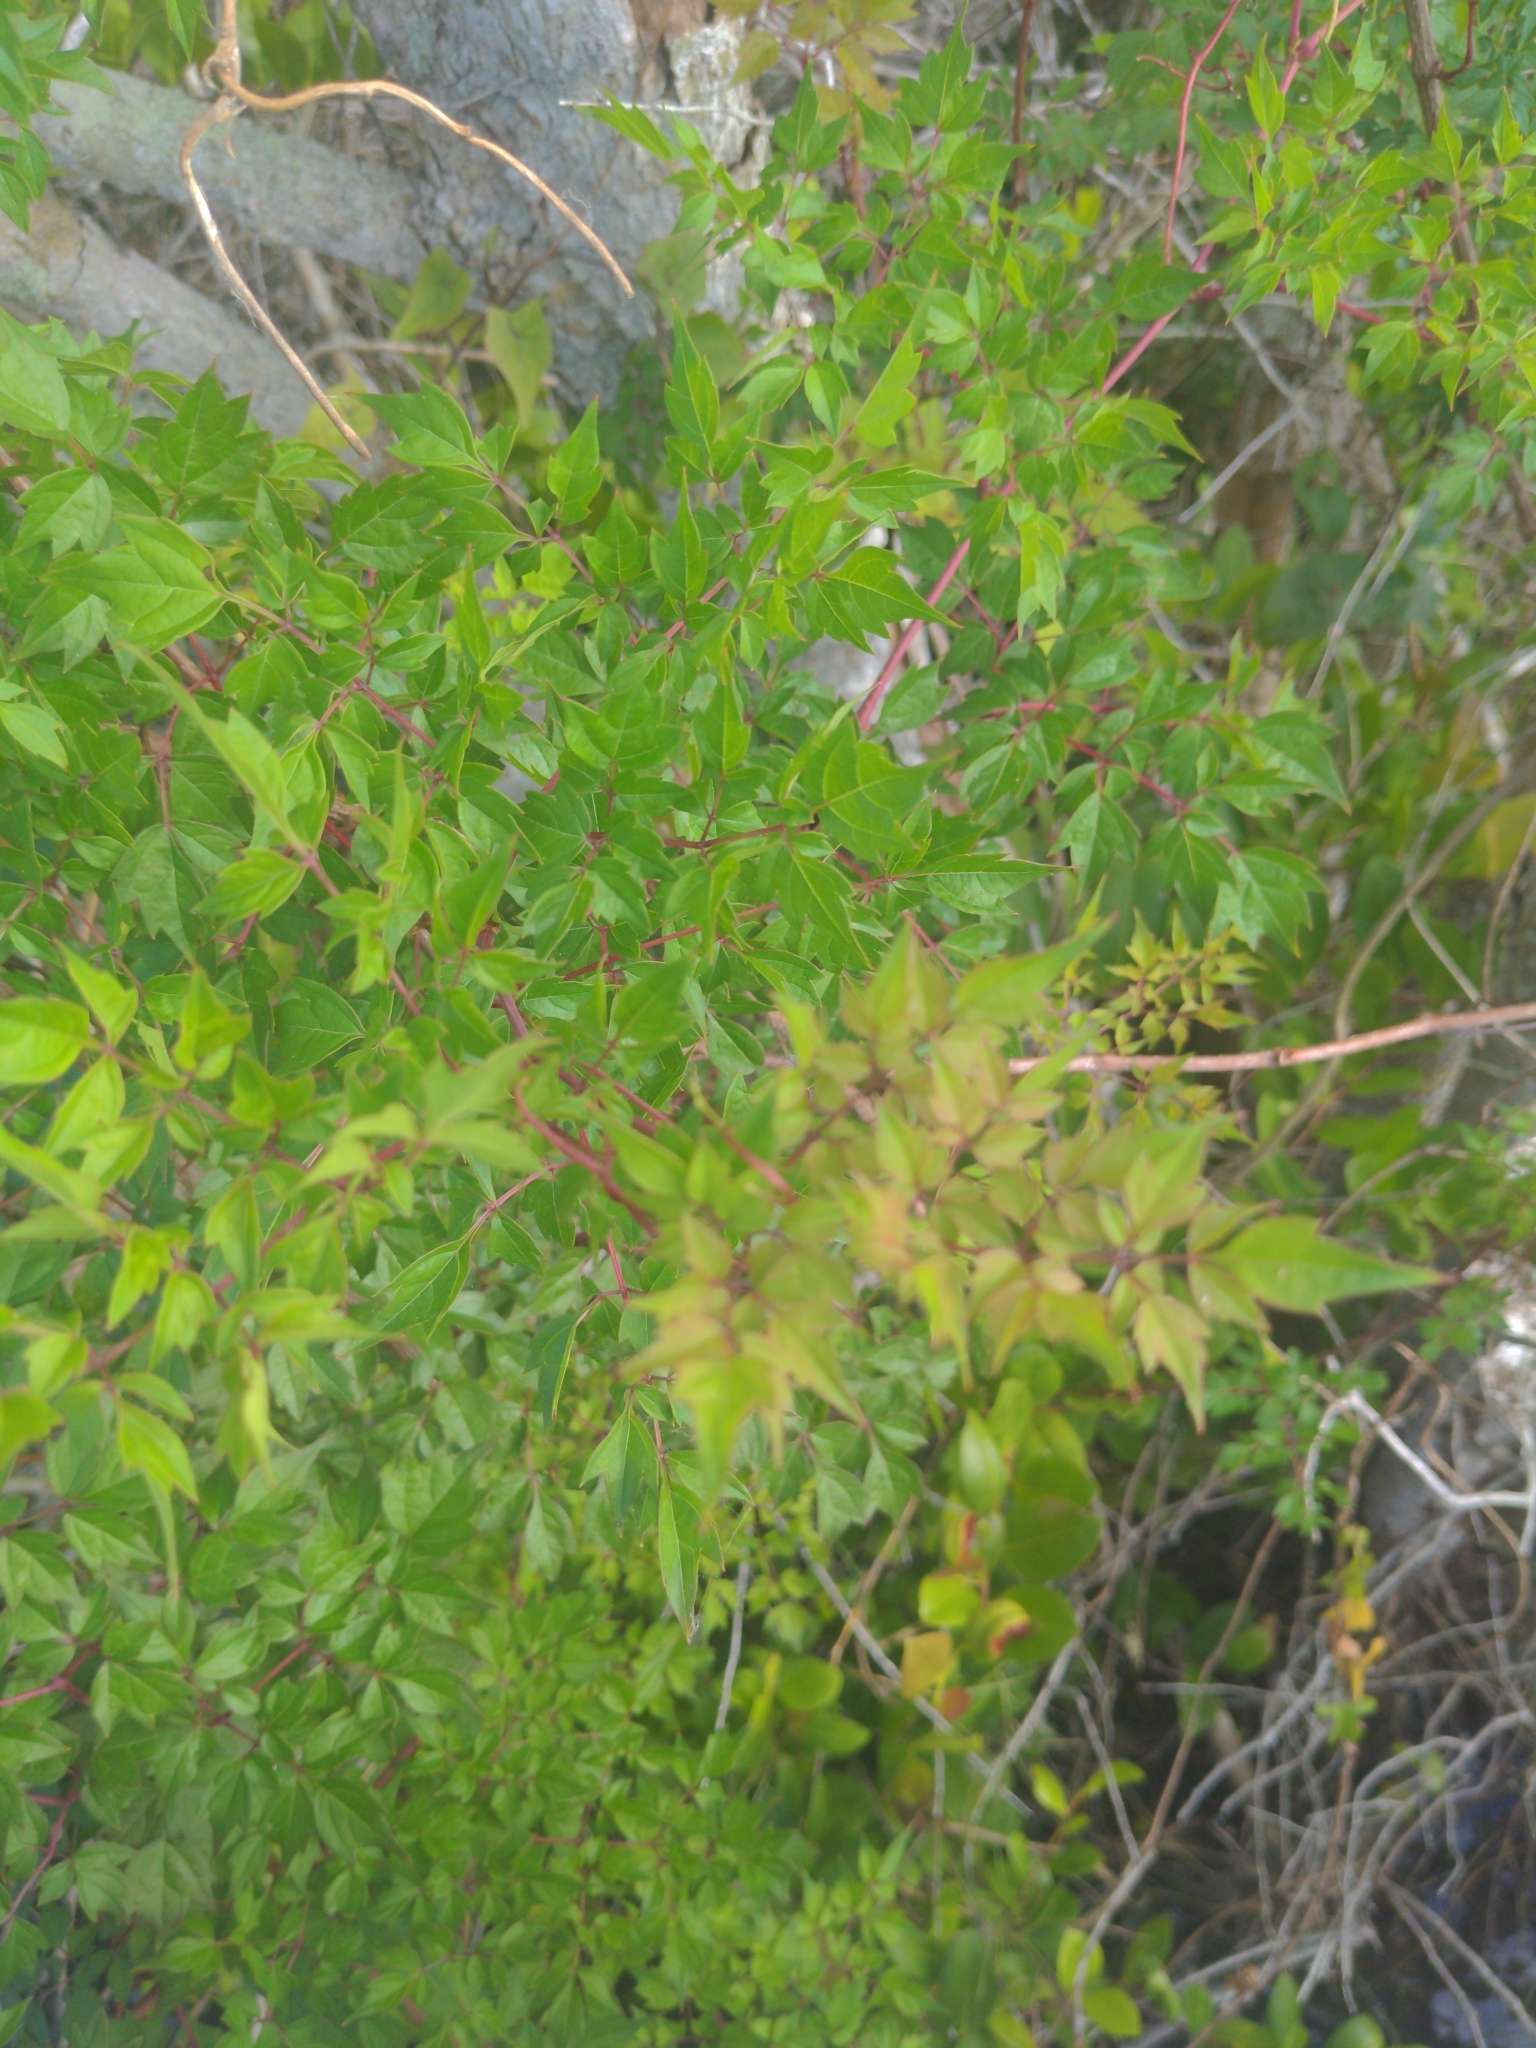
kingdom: Plantae
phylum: Tracheophyta
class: Magnoliopsida
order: Vitales
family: Vitaceae
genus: Nekemias
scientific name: Nekemias arborea
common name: Peppervine
